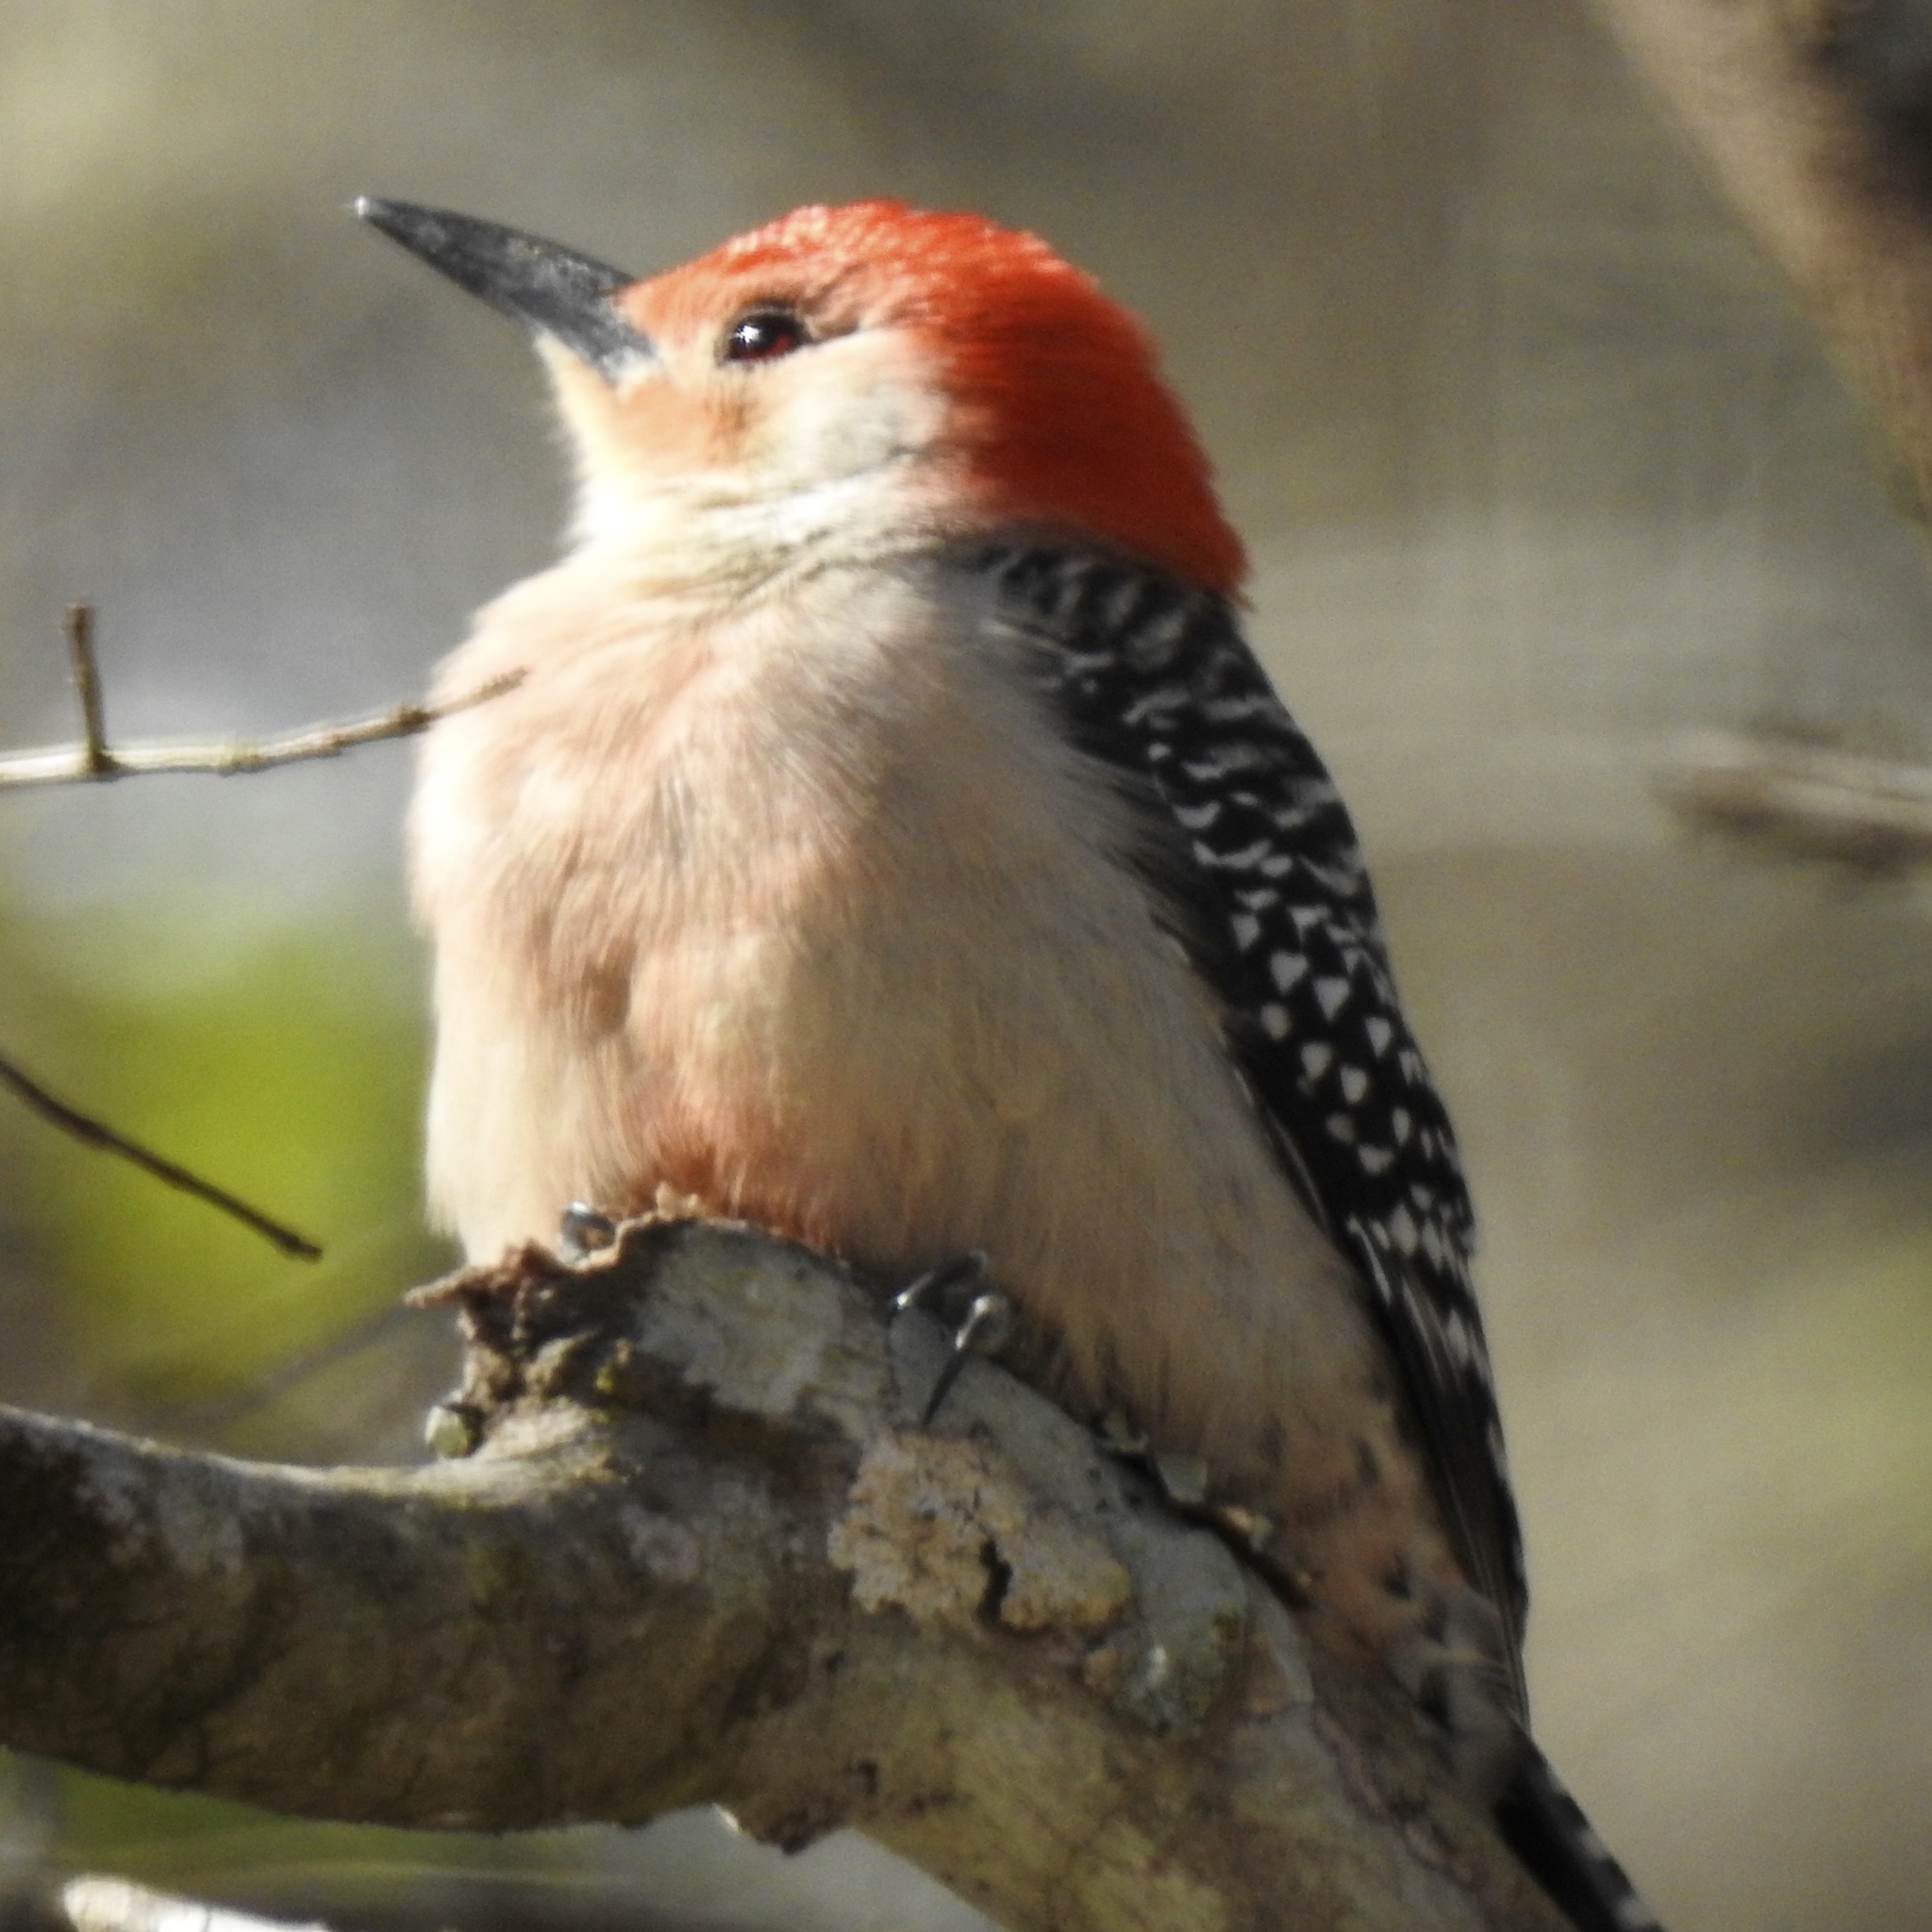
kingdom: Animalia
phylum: Chordata
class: Aves
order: Piciformes
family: Picidae
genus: Melanerpes
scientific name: Melanerpes carolinus
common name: Red-bellied woodpecker
